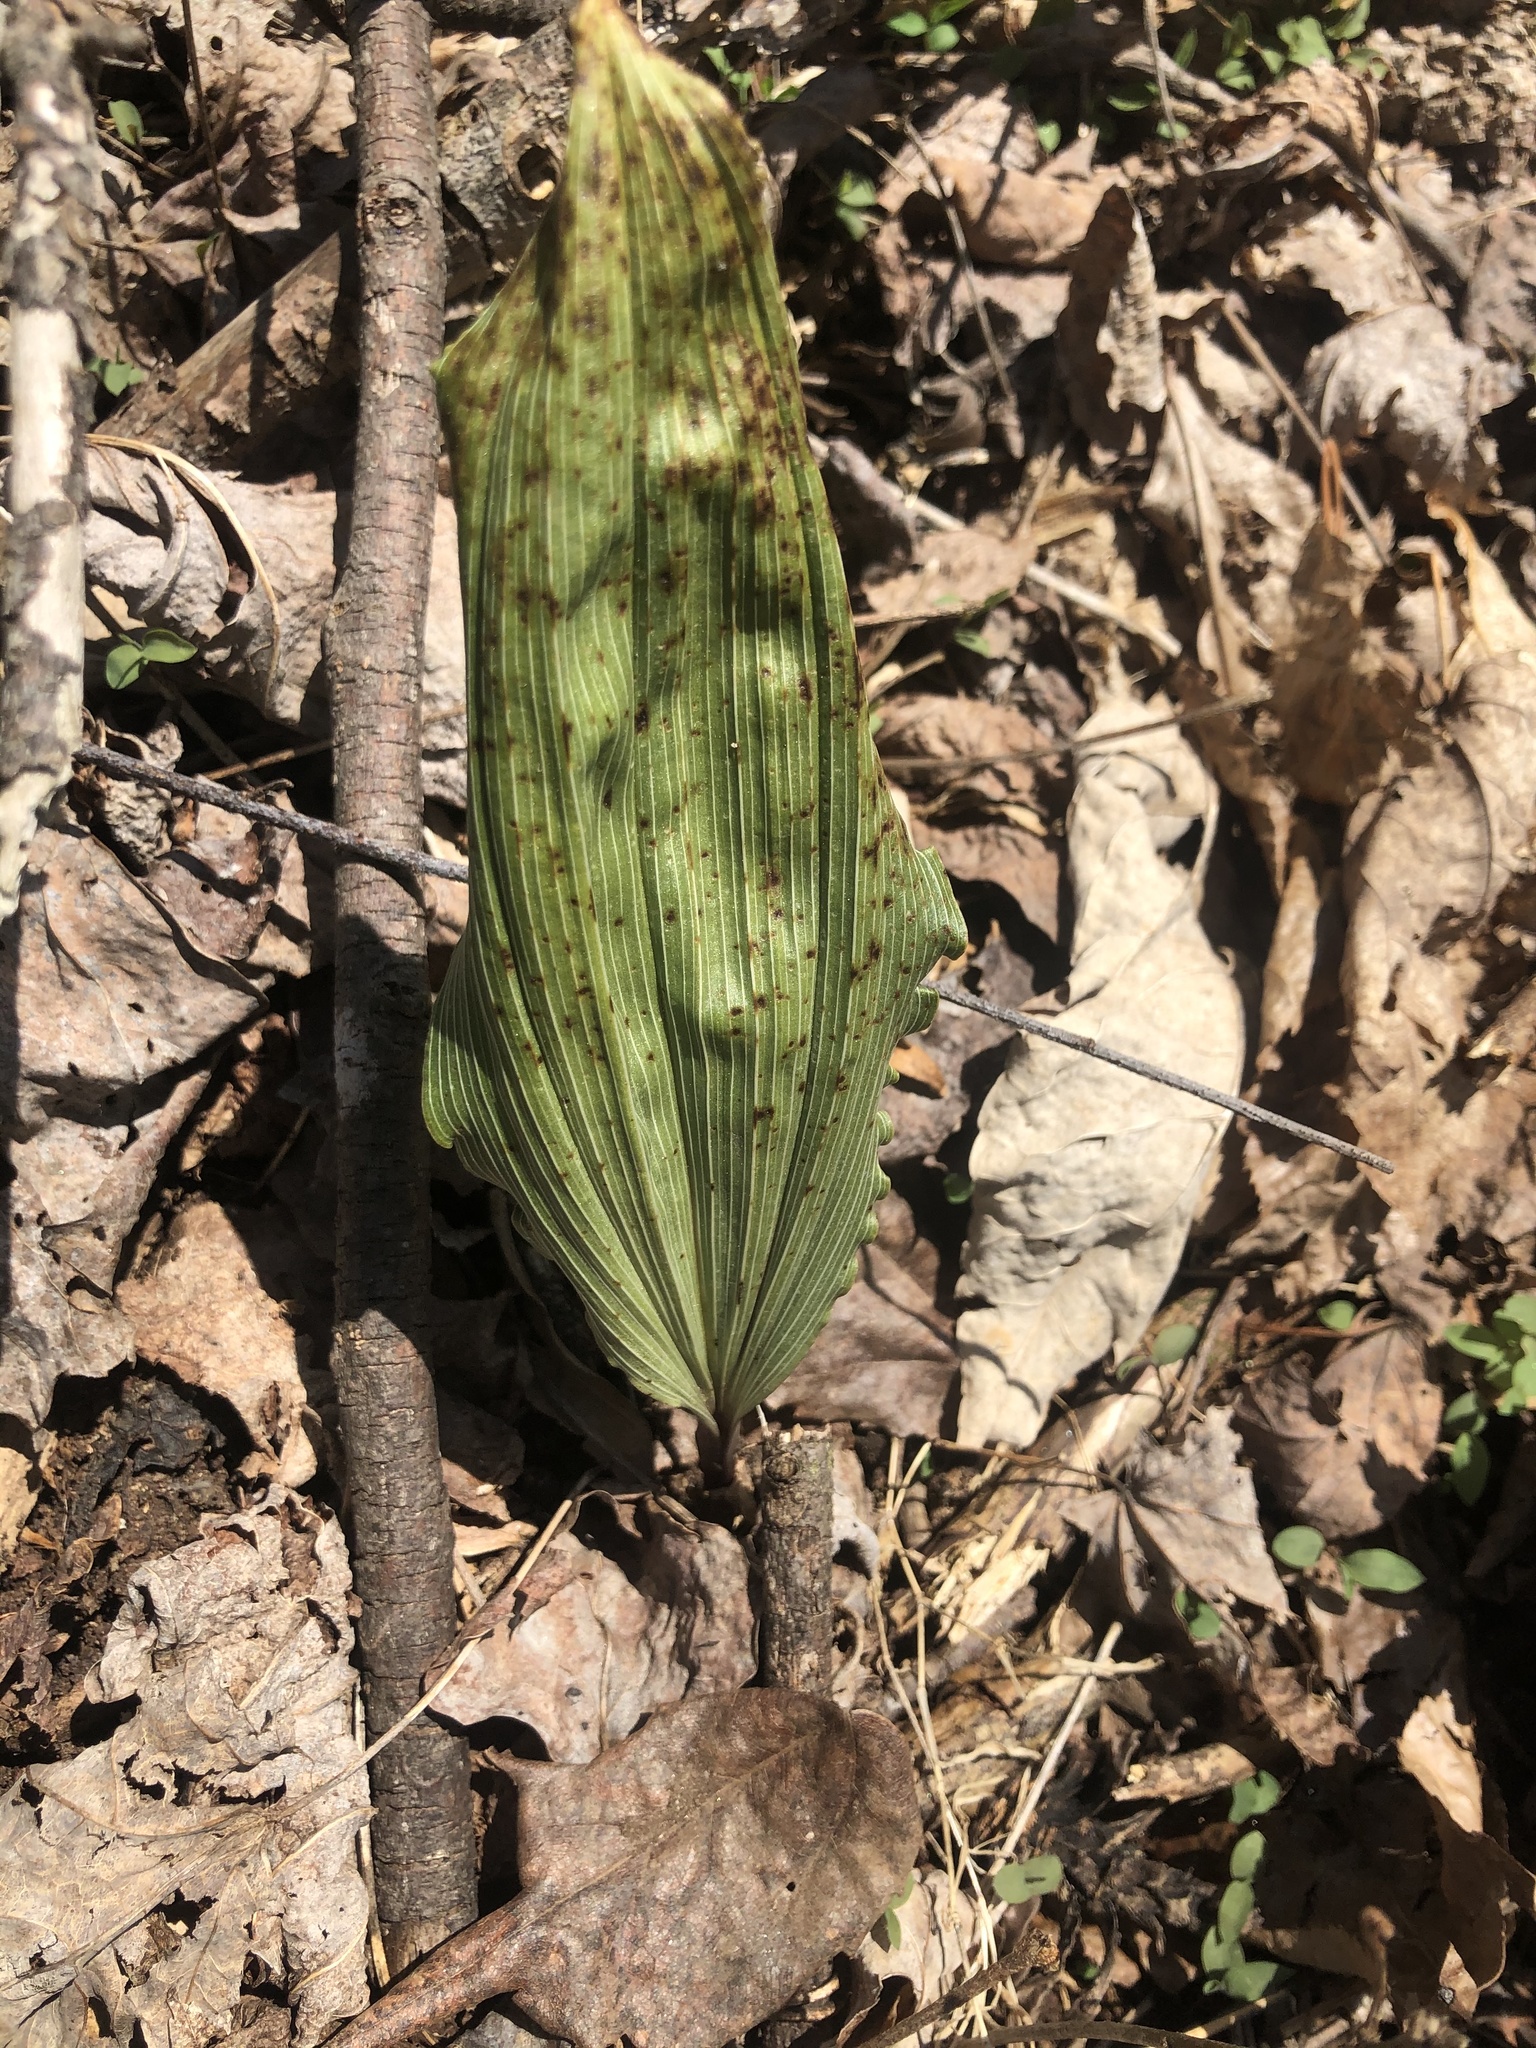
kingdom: Plantae
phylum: Tracheophyta
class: Liliopsida
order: Asparagales
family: Orchidaceae
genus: Aplectrum
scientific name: Aplectrum hyemale
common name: Adam-and-eve
